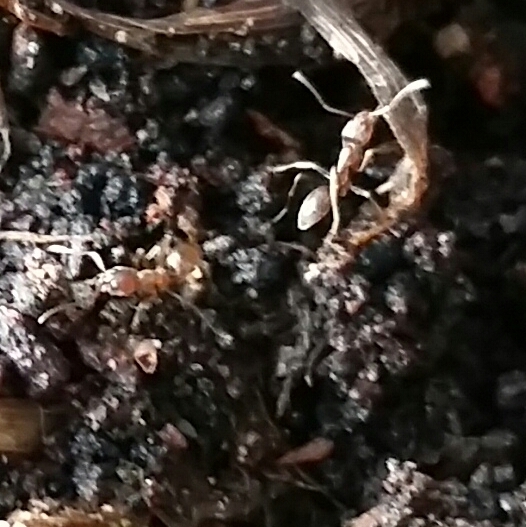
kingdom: Animalia
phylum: Arthropoda
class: Insecta
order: Hymenoptera
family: Formicidae
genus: Linepithema
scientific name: Linepithema humile
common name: Argentine ant
